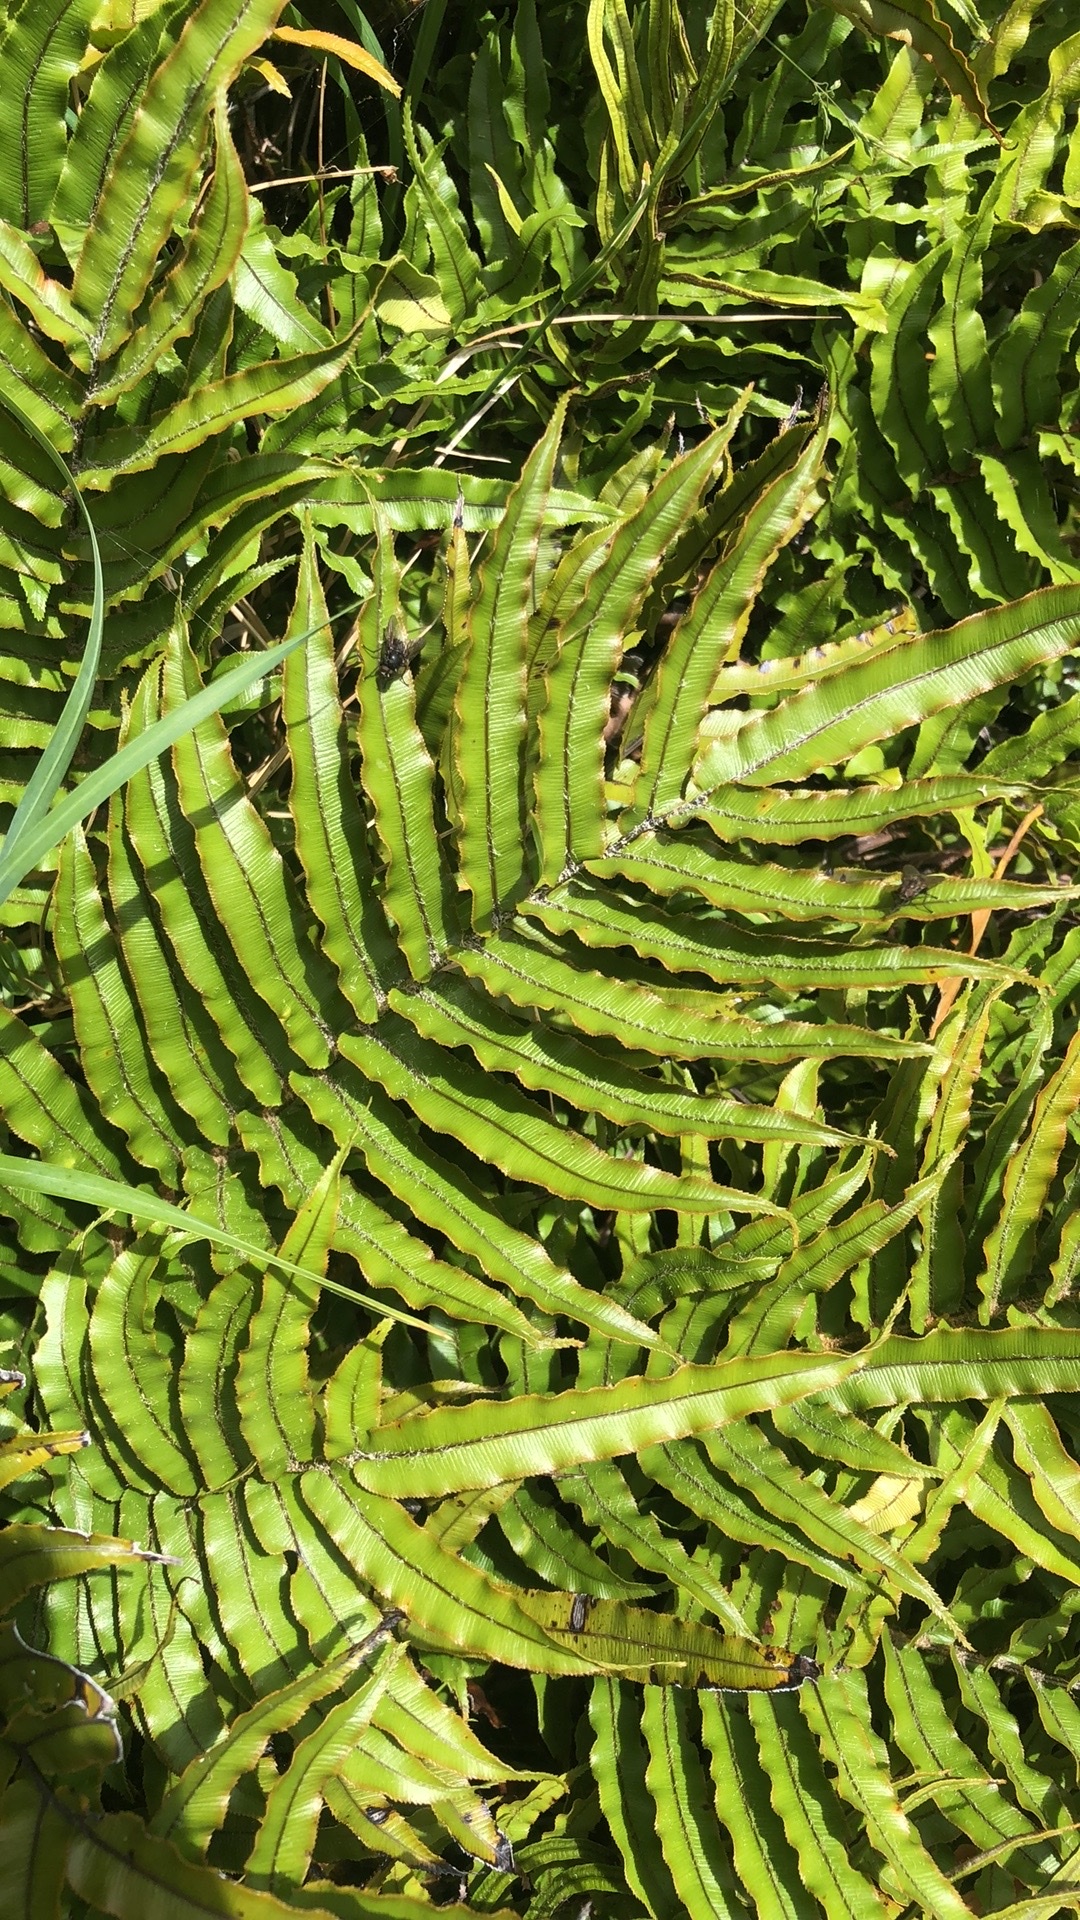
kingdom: Plantae
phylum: Tracheophyta
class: Polypodiopsida
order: Polypodiales
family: Blechnaceae
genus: Parablechnum
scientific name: Parablechnum montanum
